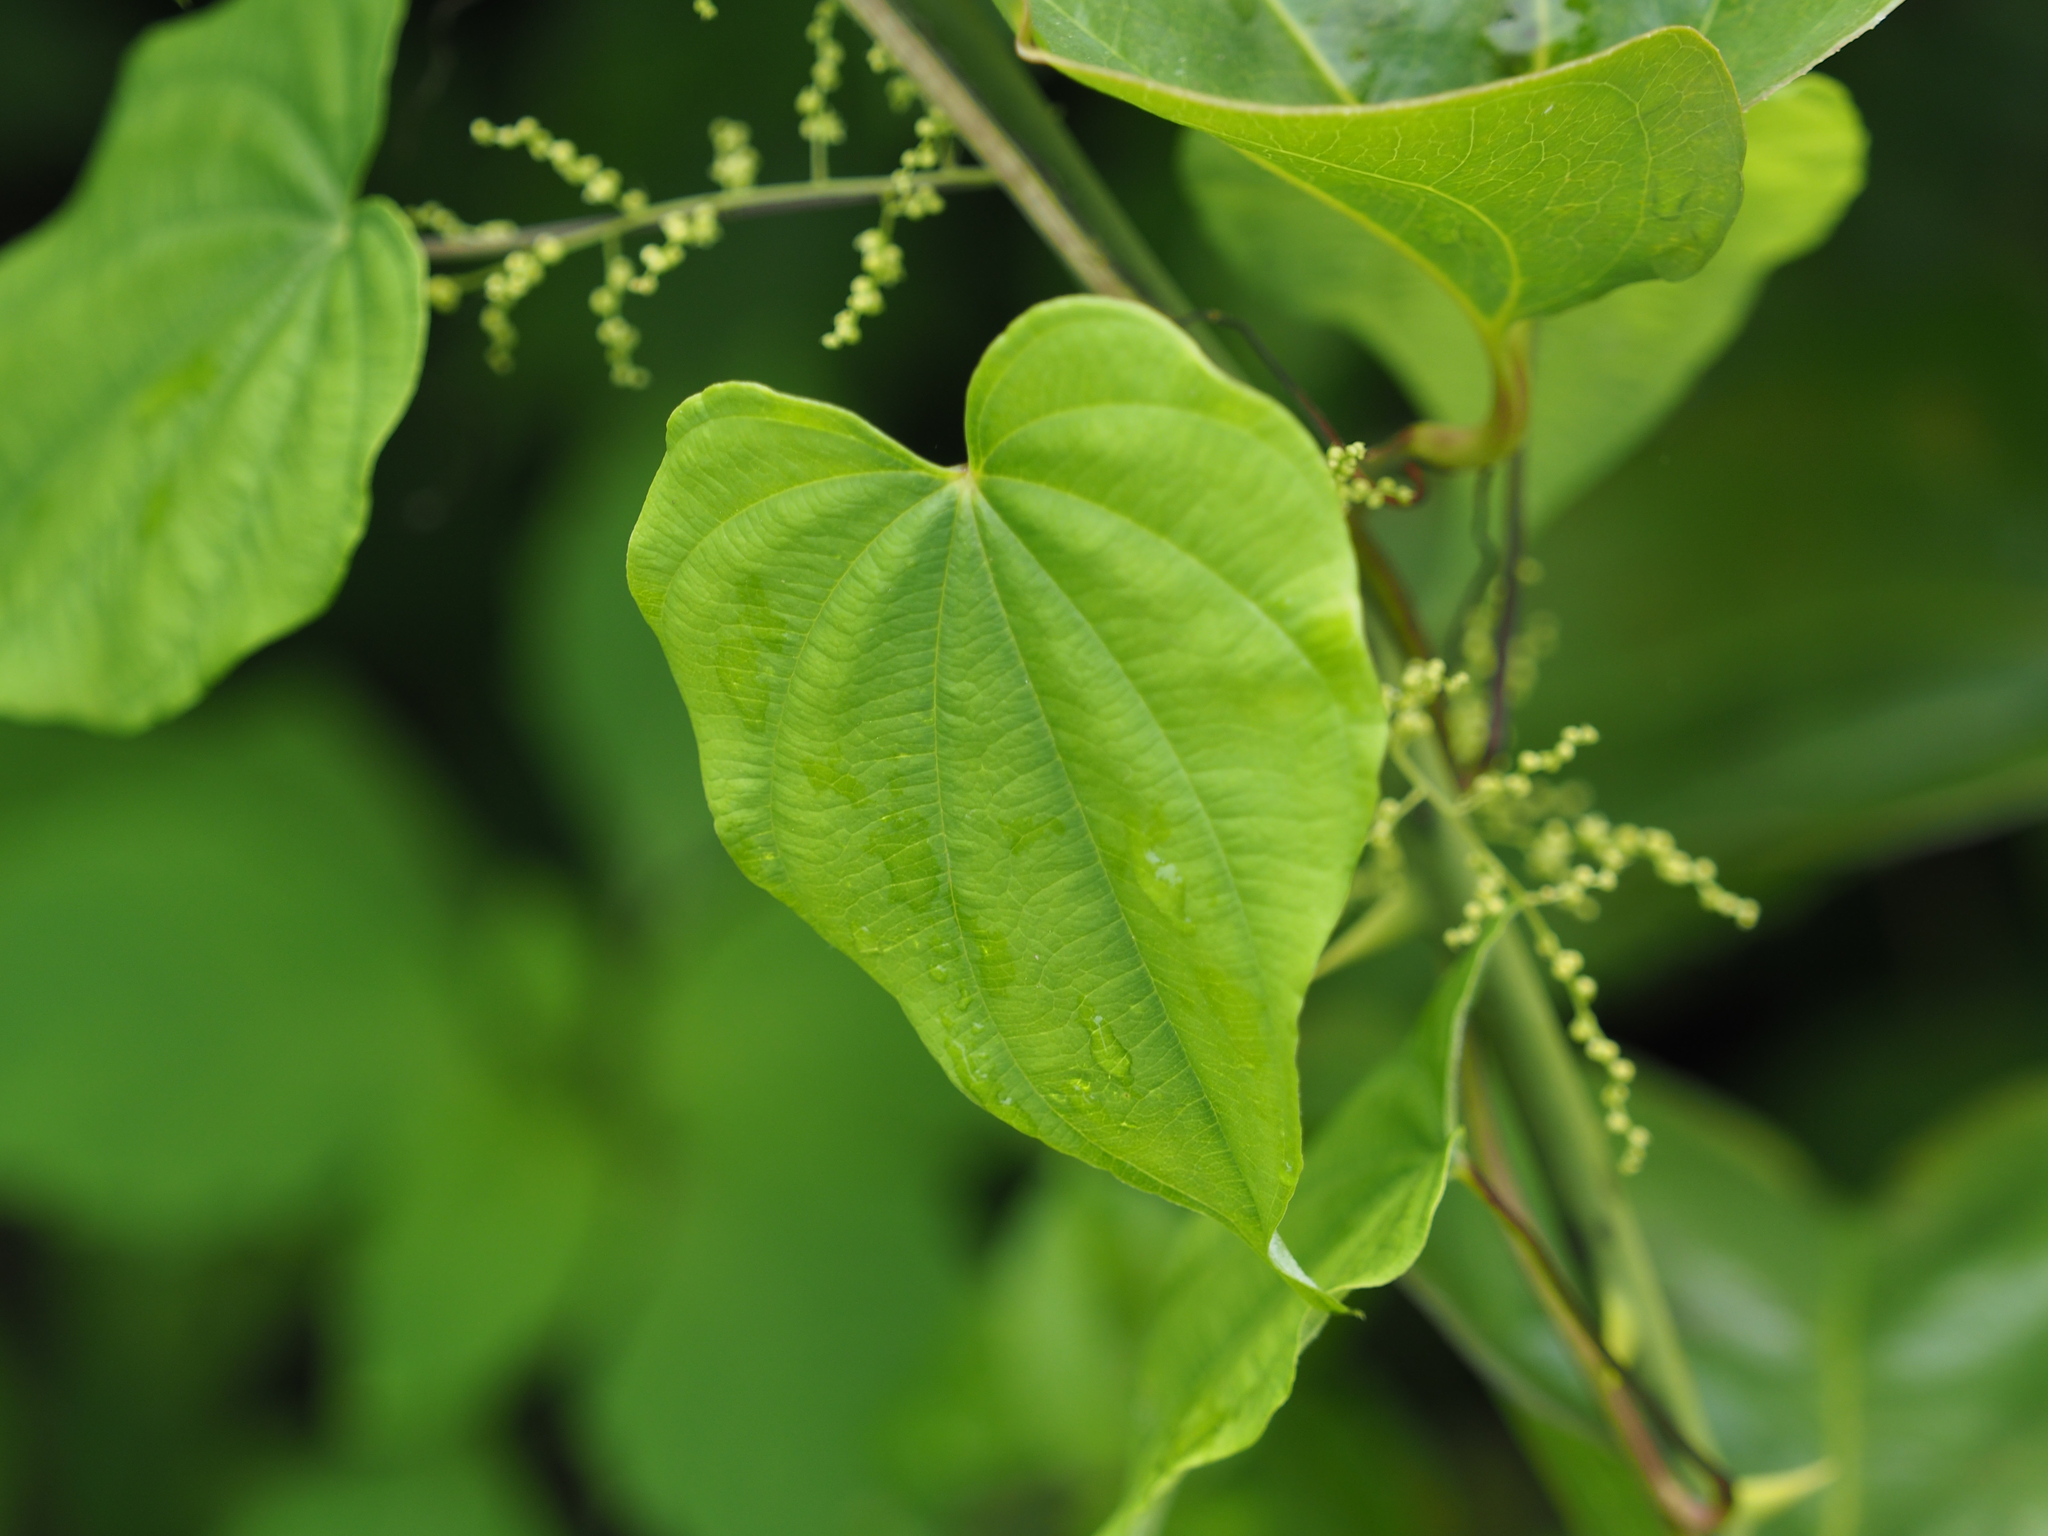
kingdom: Plantae
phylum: Tracheophyta
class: Liliopsida
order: Dioscoreales
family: Dioscoreaceae
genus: Dioscorea
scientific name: Dioscorea villosa
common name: Wild yam
